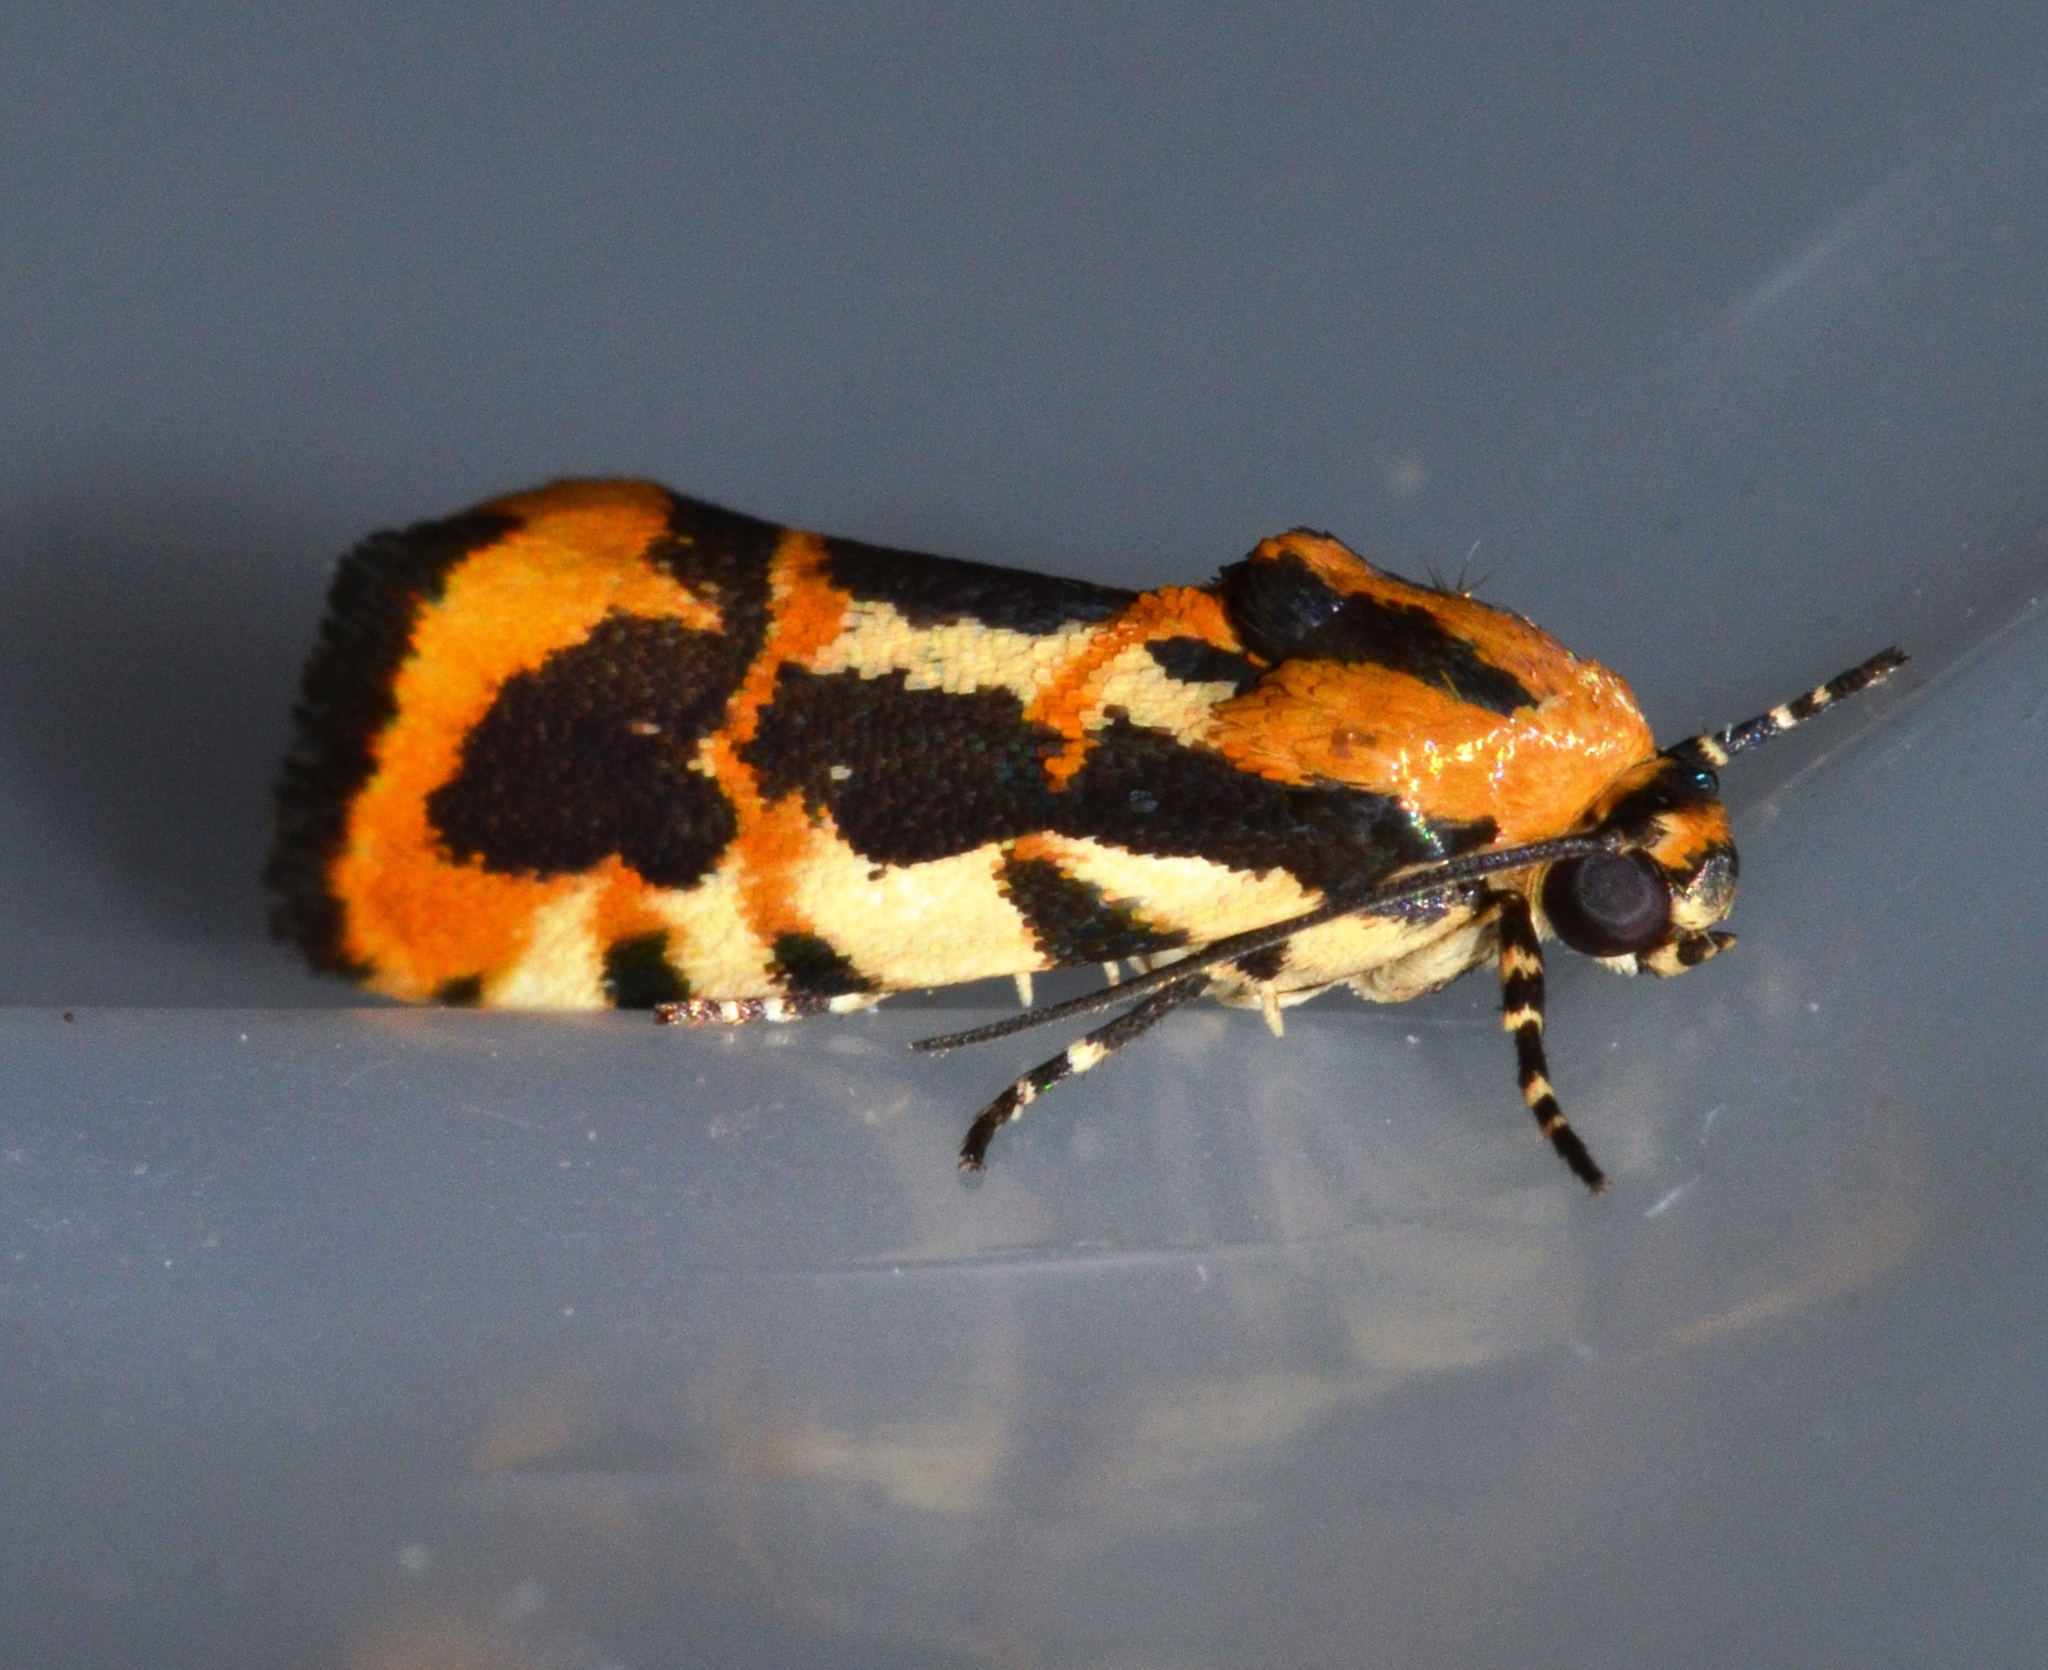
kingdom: Animalia
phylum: Arthropoda
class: Insecta
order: Lepidoptera
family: Noctuidae
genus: Acontia
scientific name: Acontia leo
